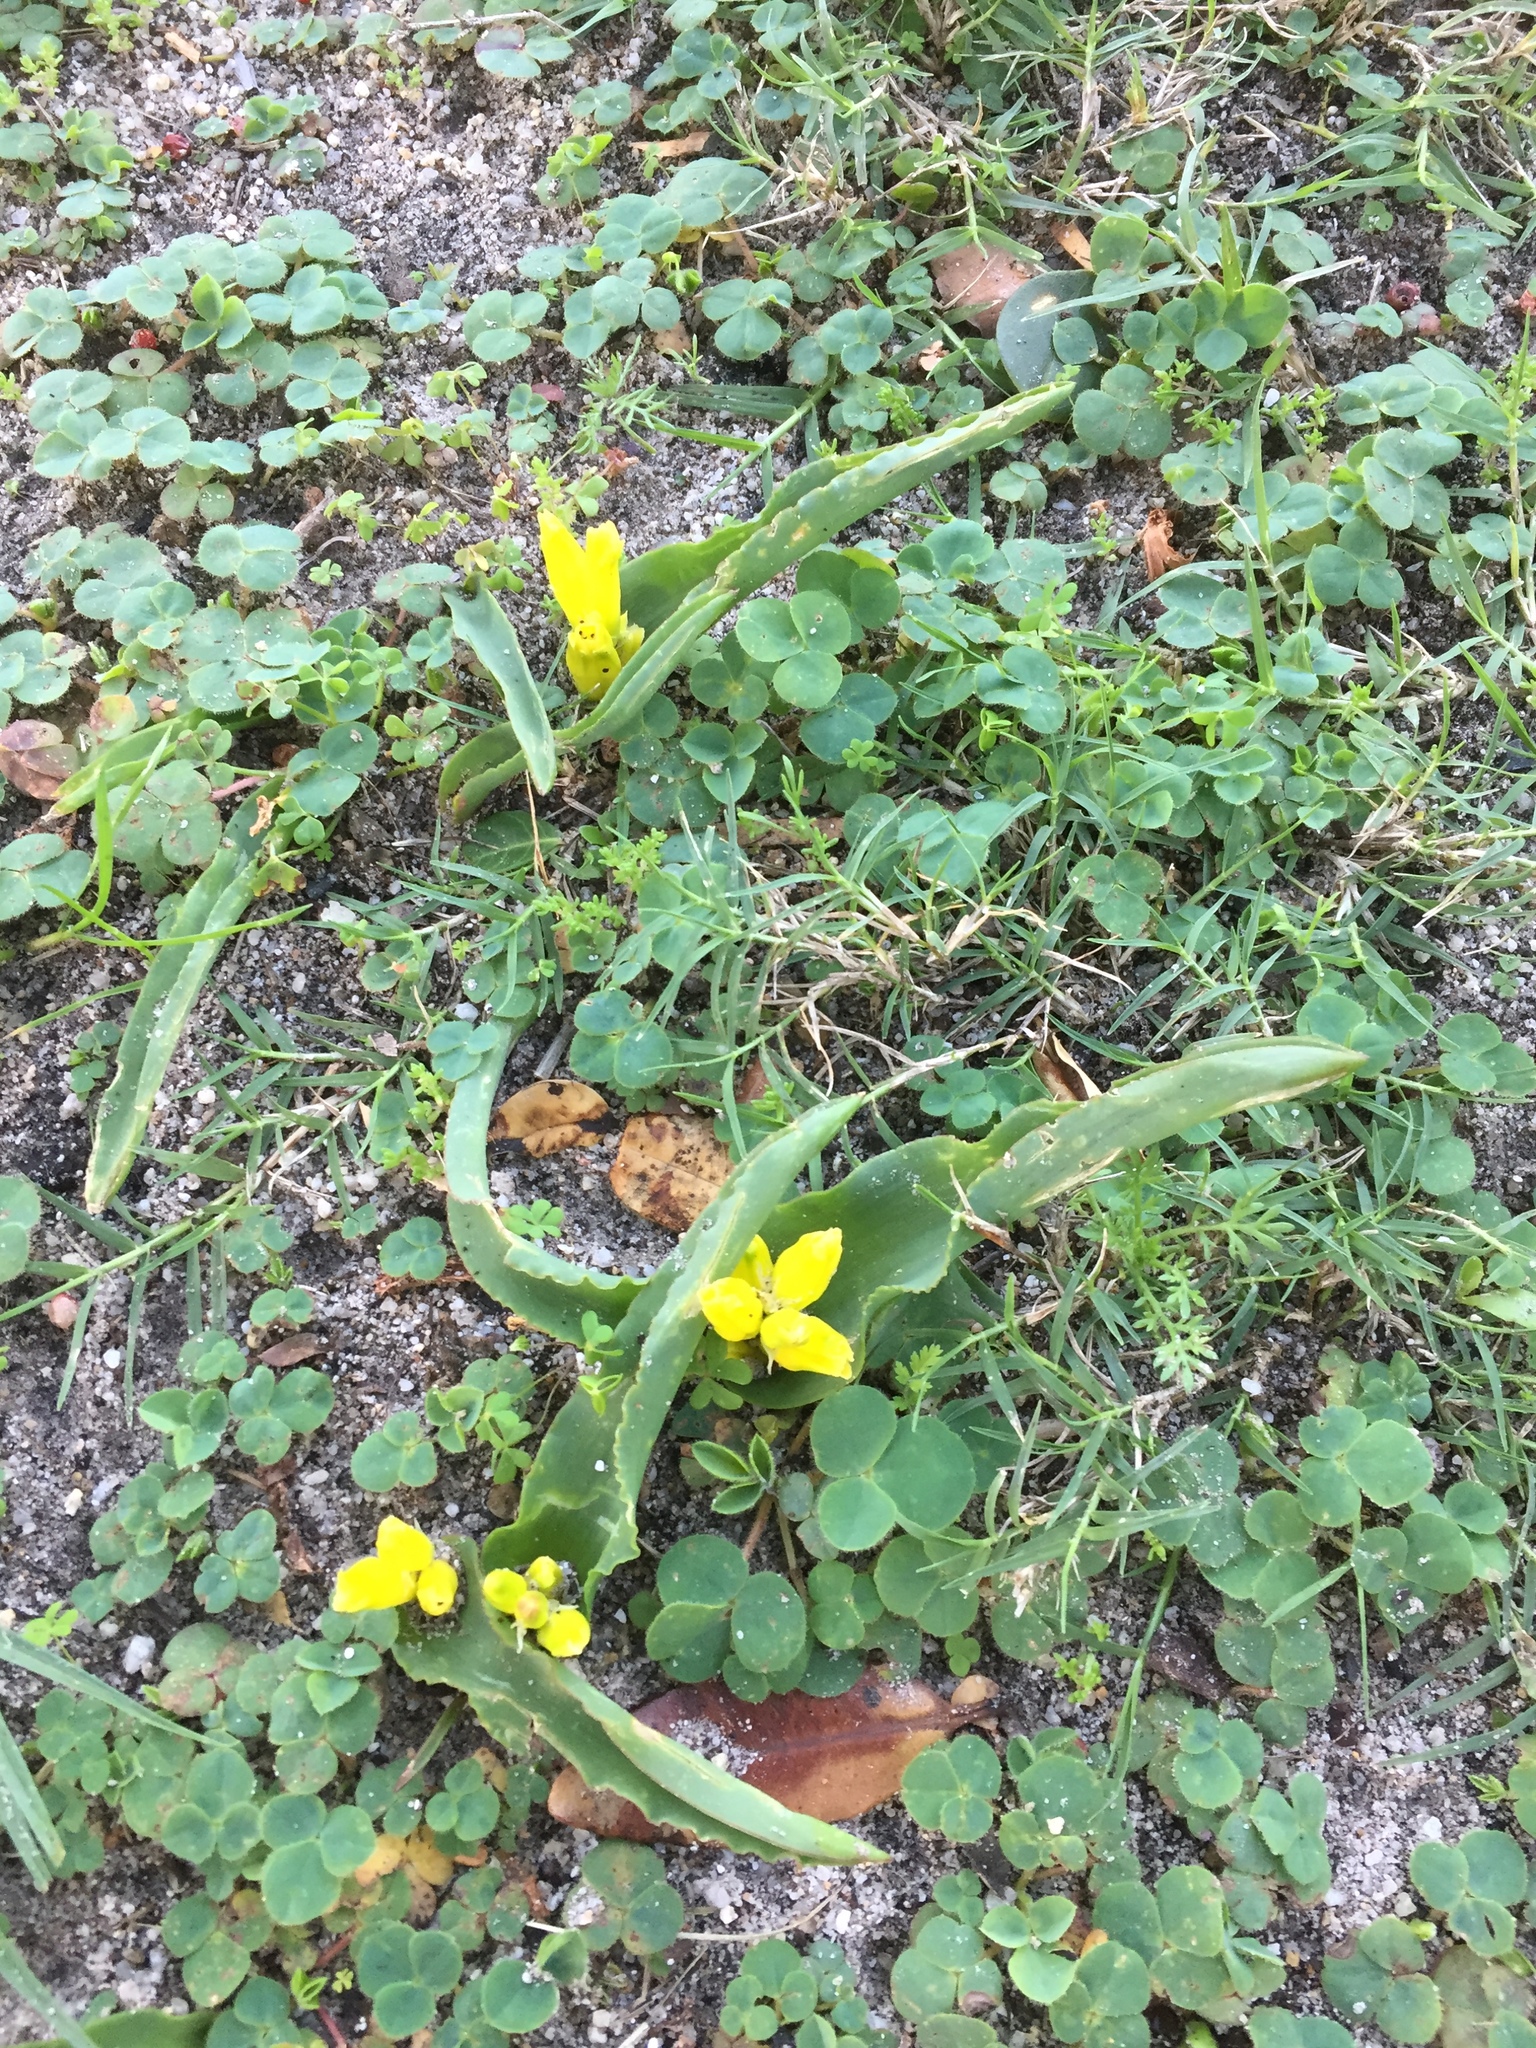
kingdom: Plantae
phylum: Tracheophyta
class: Liliopsida
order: Asparagales
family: Asparagaceae
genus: Lachenalia
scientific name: Lachenalia reflexa
